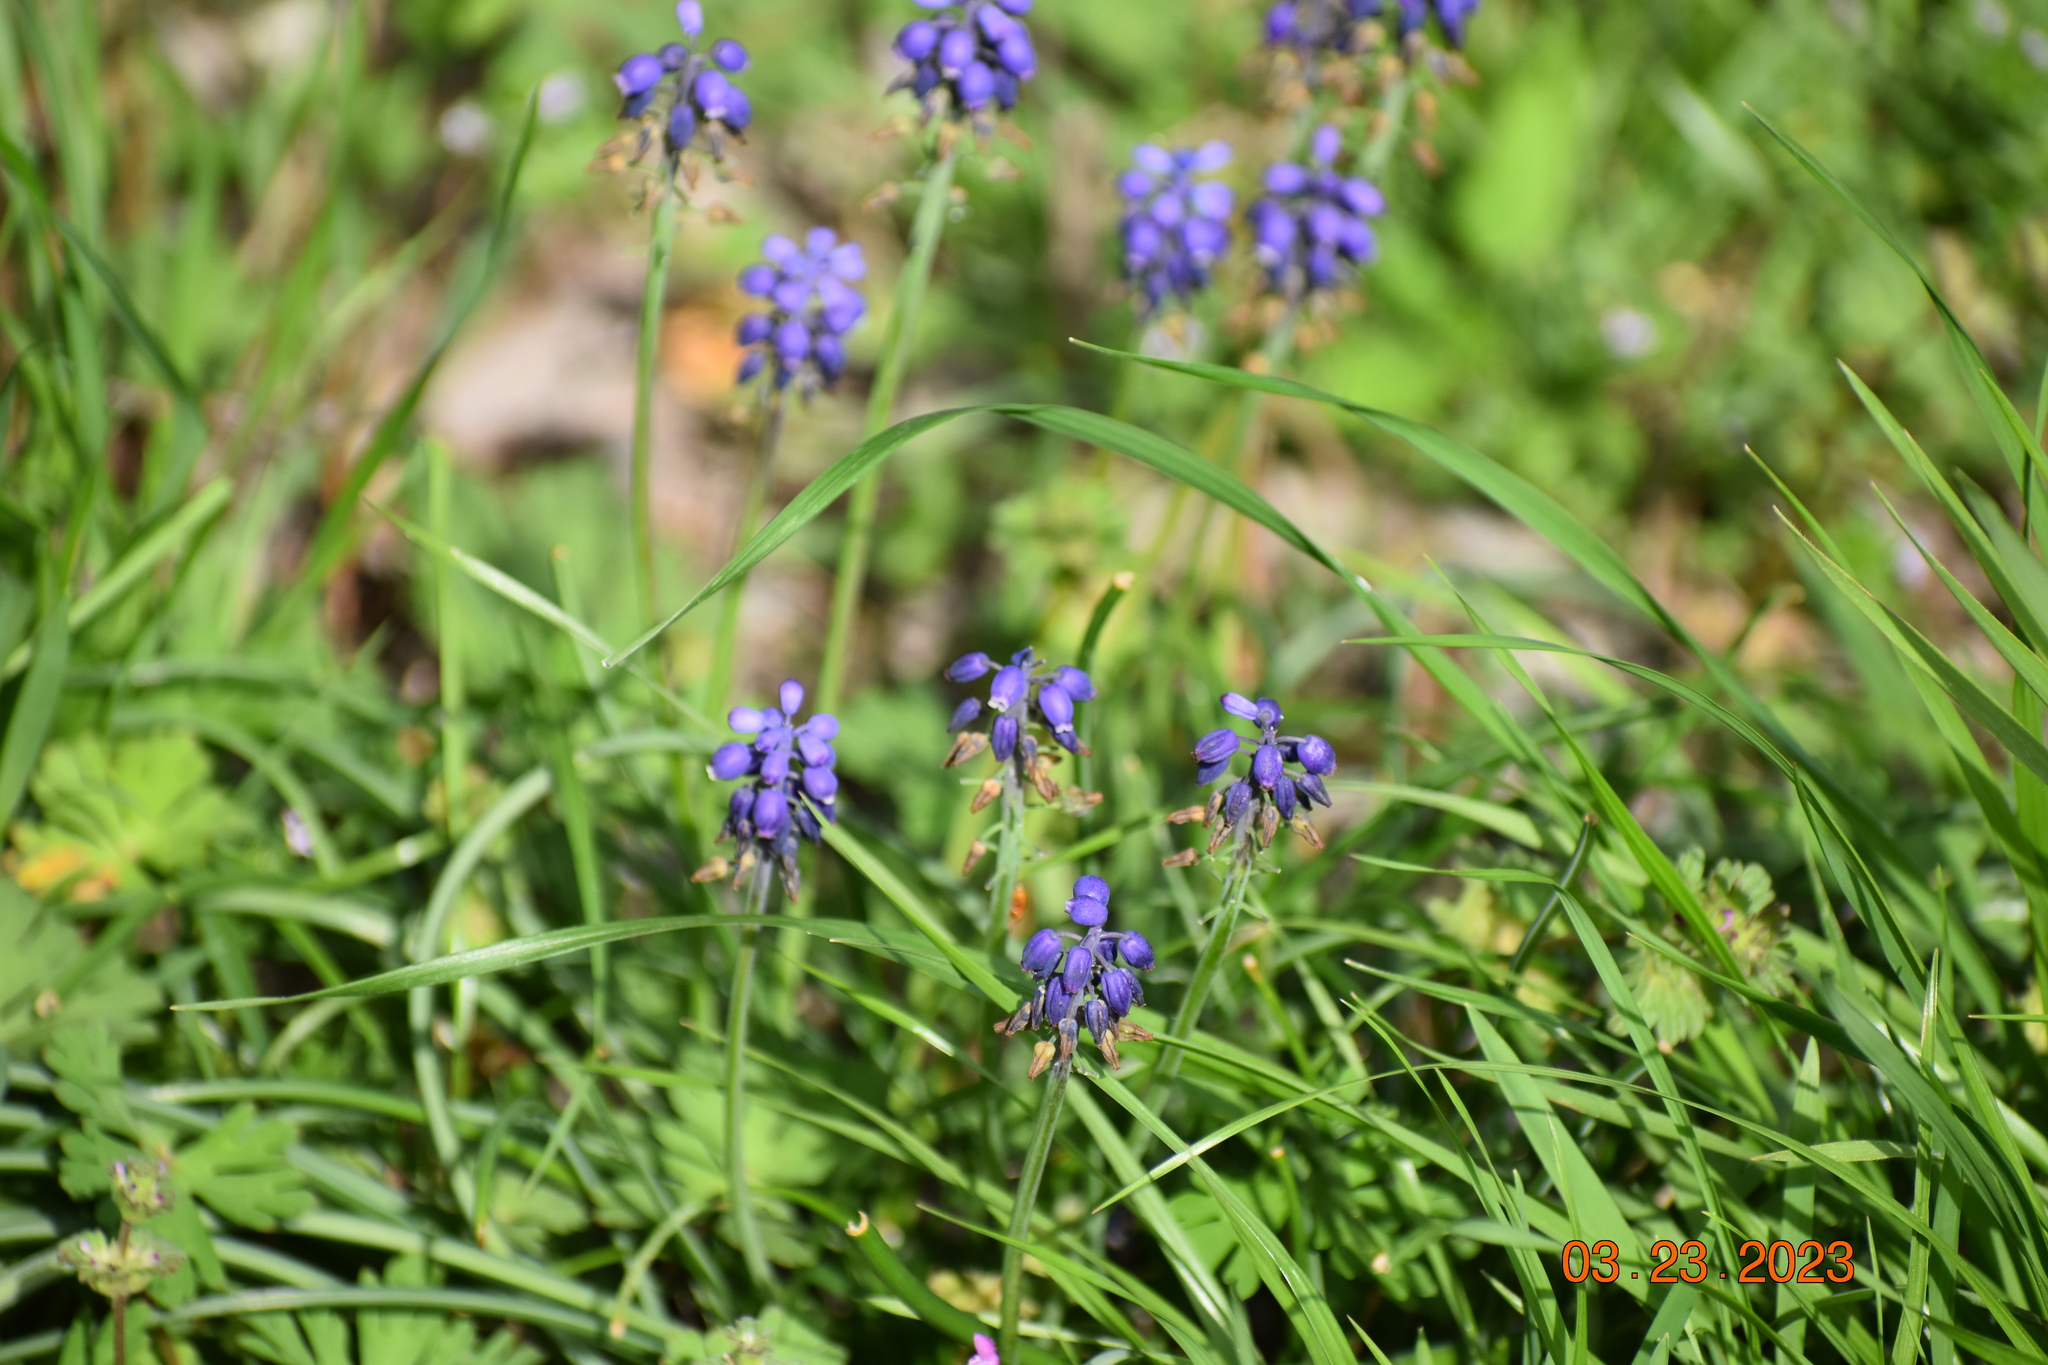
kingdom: Plantae
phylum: Tracheophyta
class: Liliopsida
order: Asparagales
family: Asparagaceae
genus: Muscari
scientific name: Muscari neglectum
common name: Grape-hyacinth
